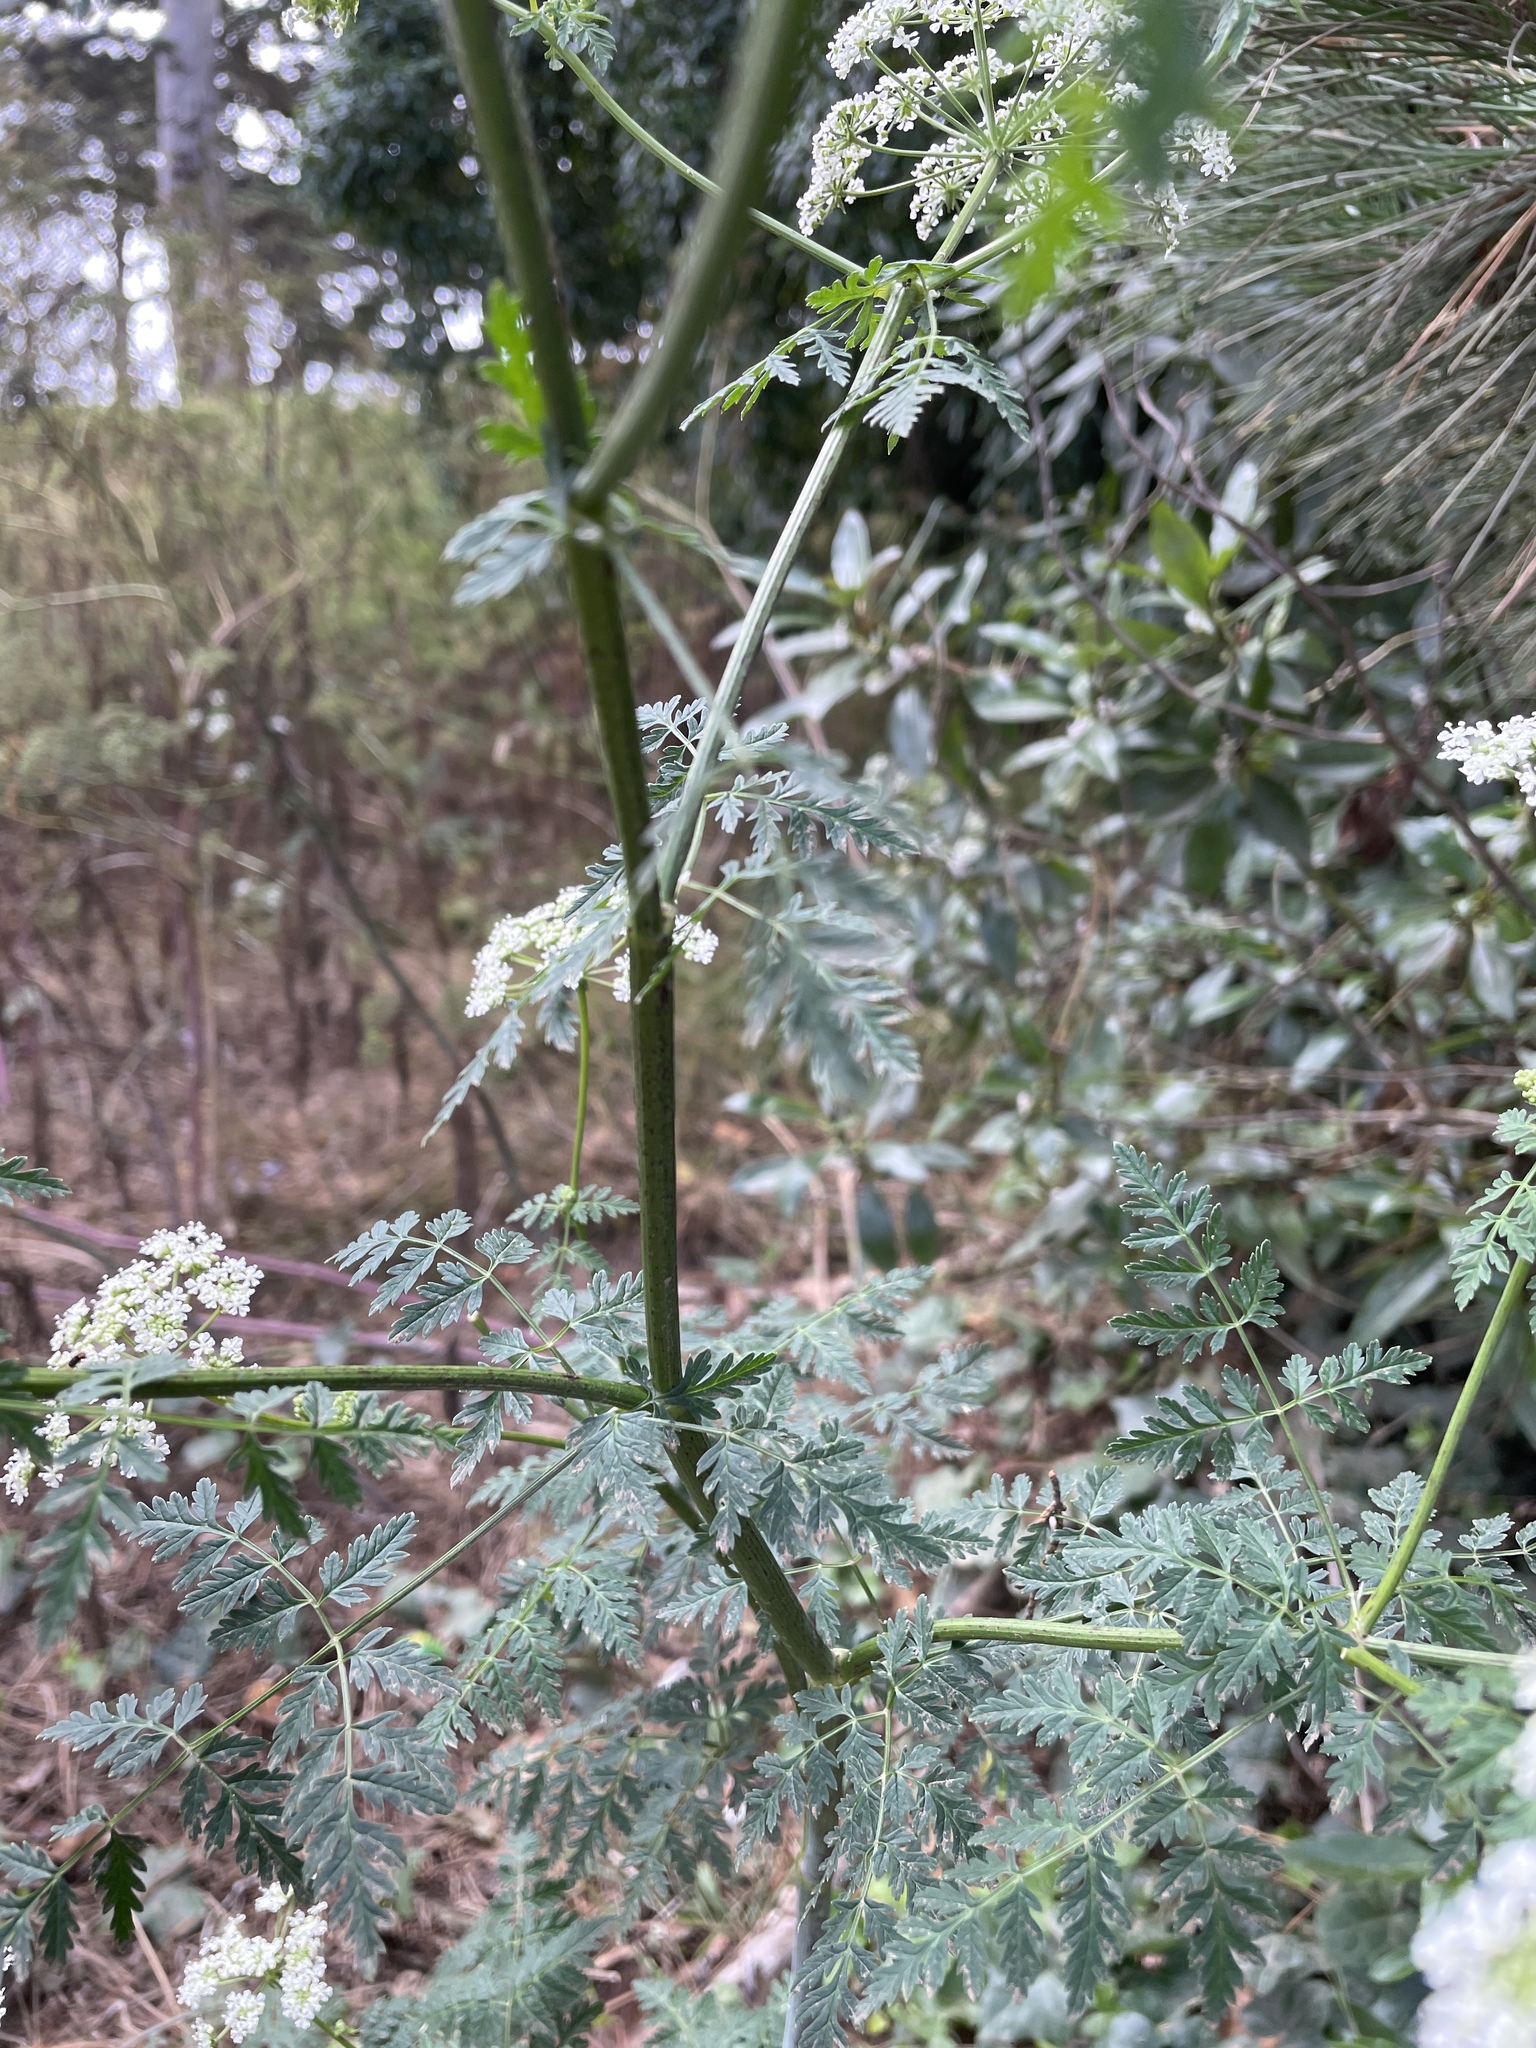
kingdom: Plantae
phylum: Tracheophyta
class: Magnoliopsida
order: Apiales
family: Apiaceae
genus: Conium
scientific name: Conium maculatum
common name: Hemlock
